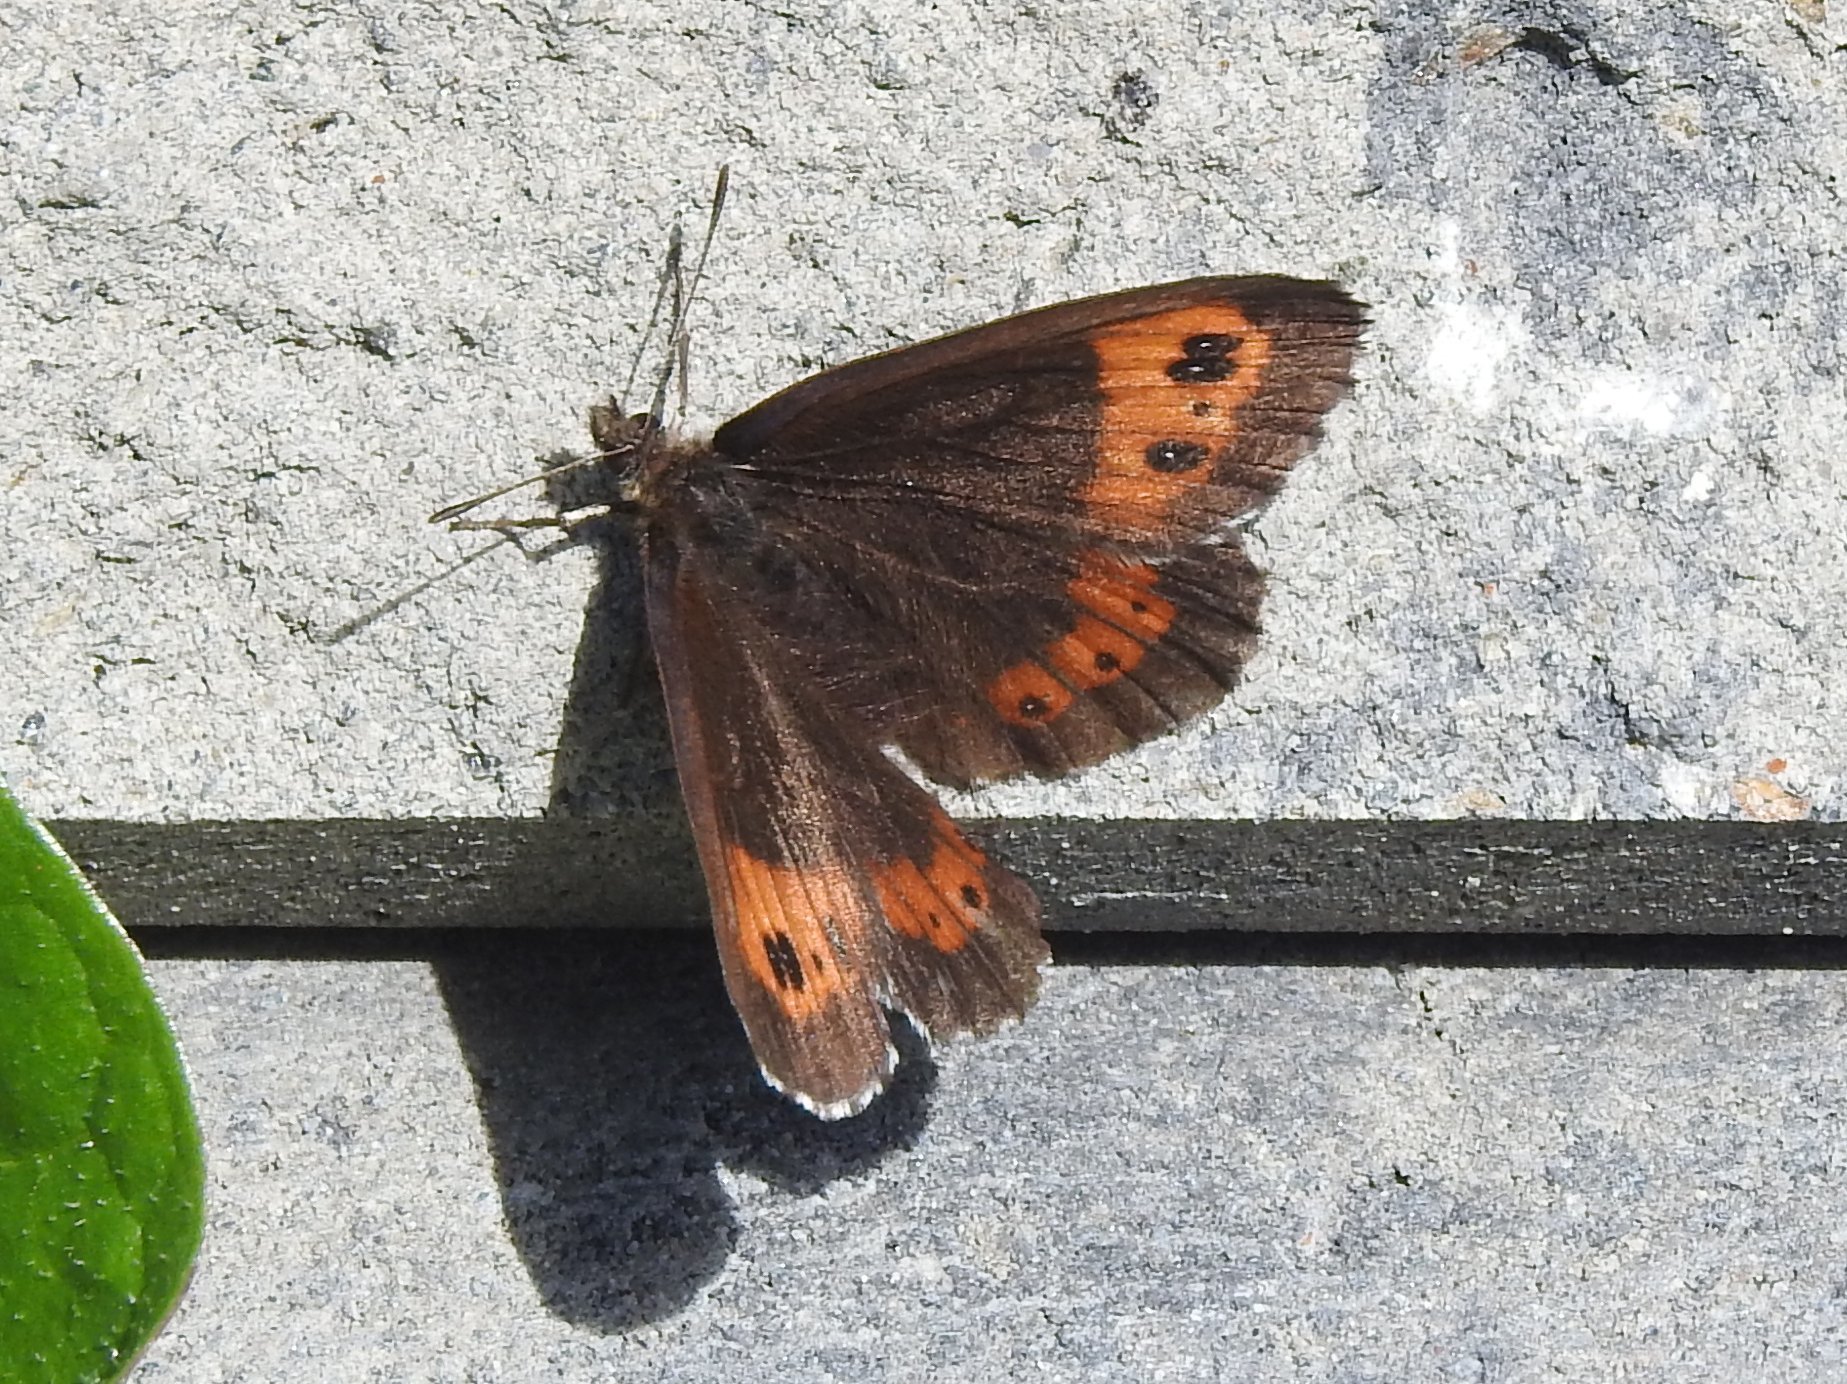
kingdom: Animalia
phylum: Arthropoda
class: Insecta
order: Lepidoptera
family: Nymphalidae
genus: Erebia
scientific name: Erebia ligea
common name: Arran brown
